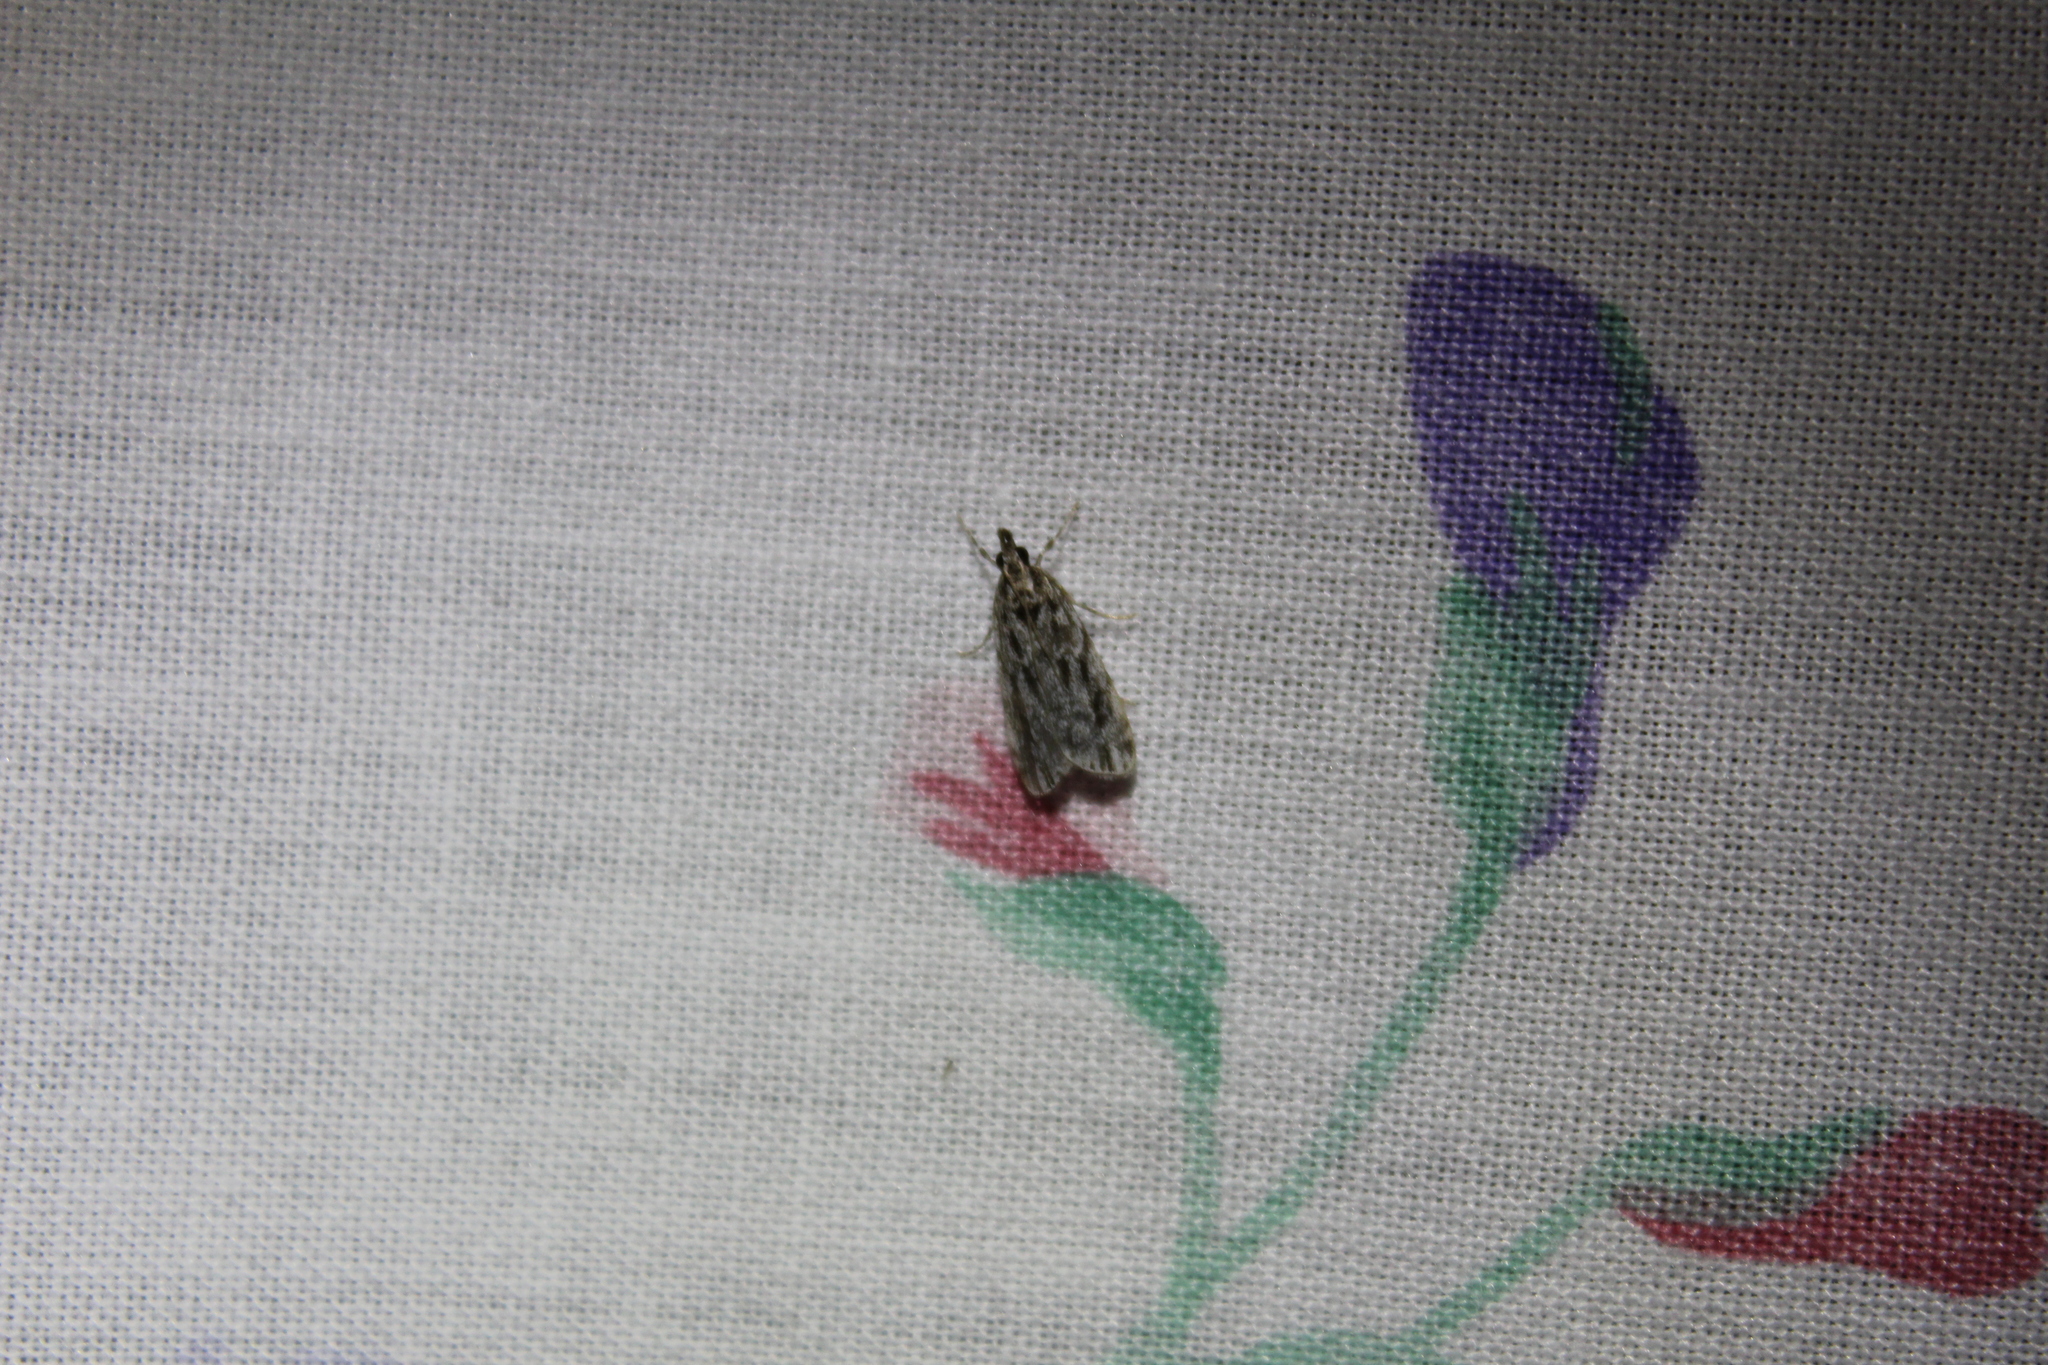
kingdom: Animalia
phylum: Arthropoda
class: Insecta
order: Lepidoptera
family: Crambidae
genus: Eudonia
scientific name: Eudonia strigalis
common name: Striped eudonia moth
